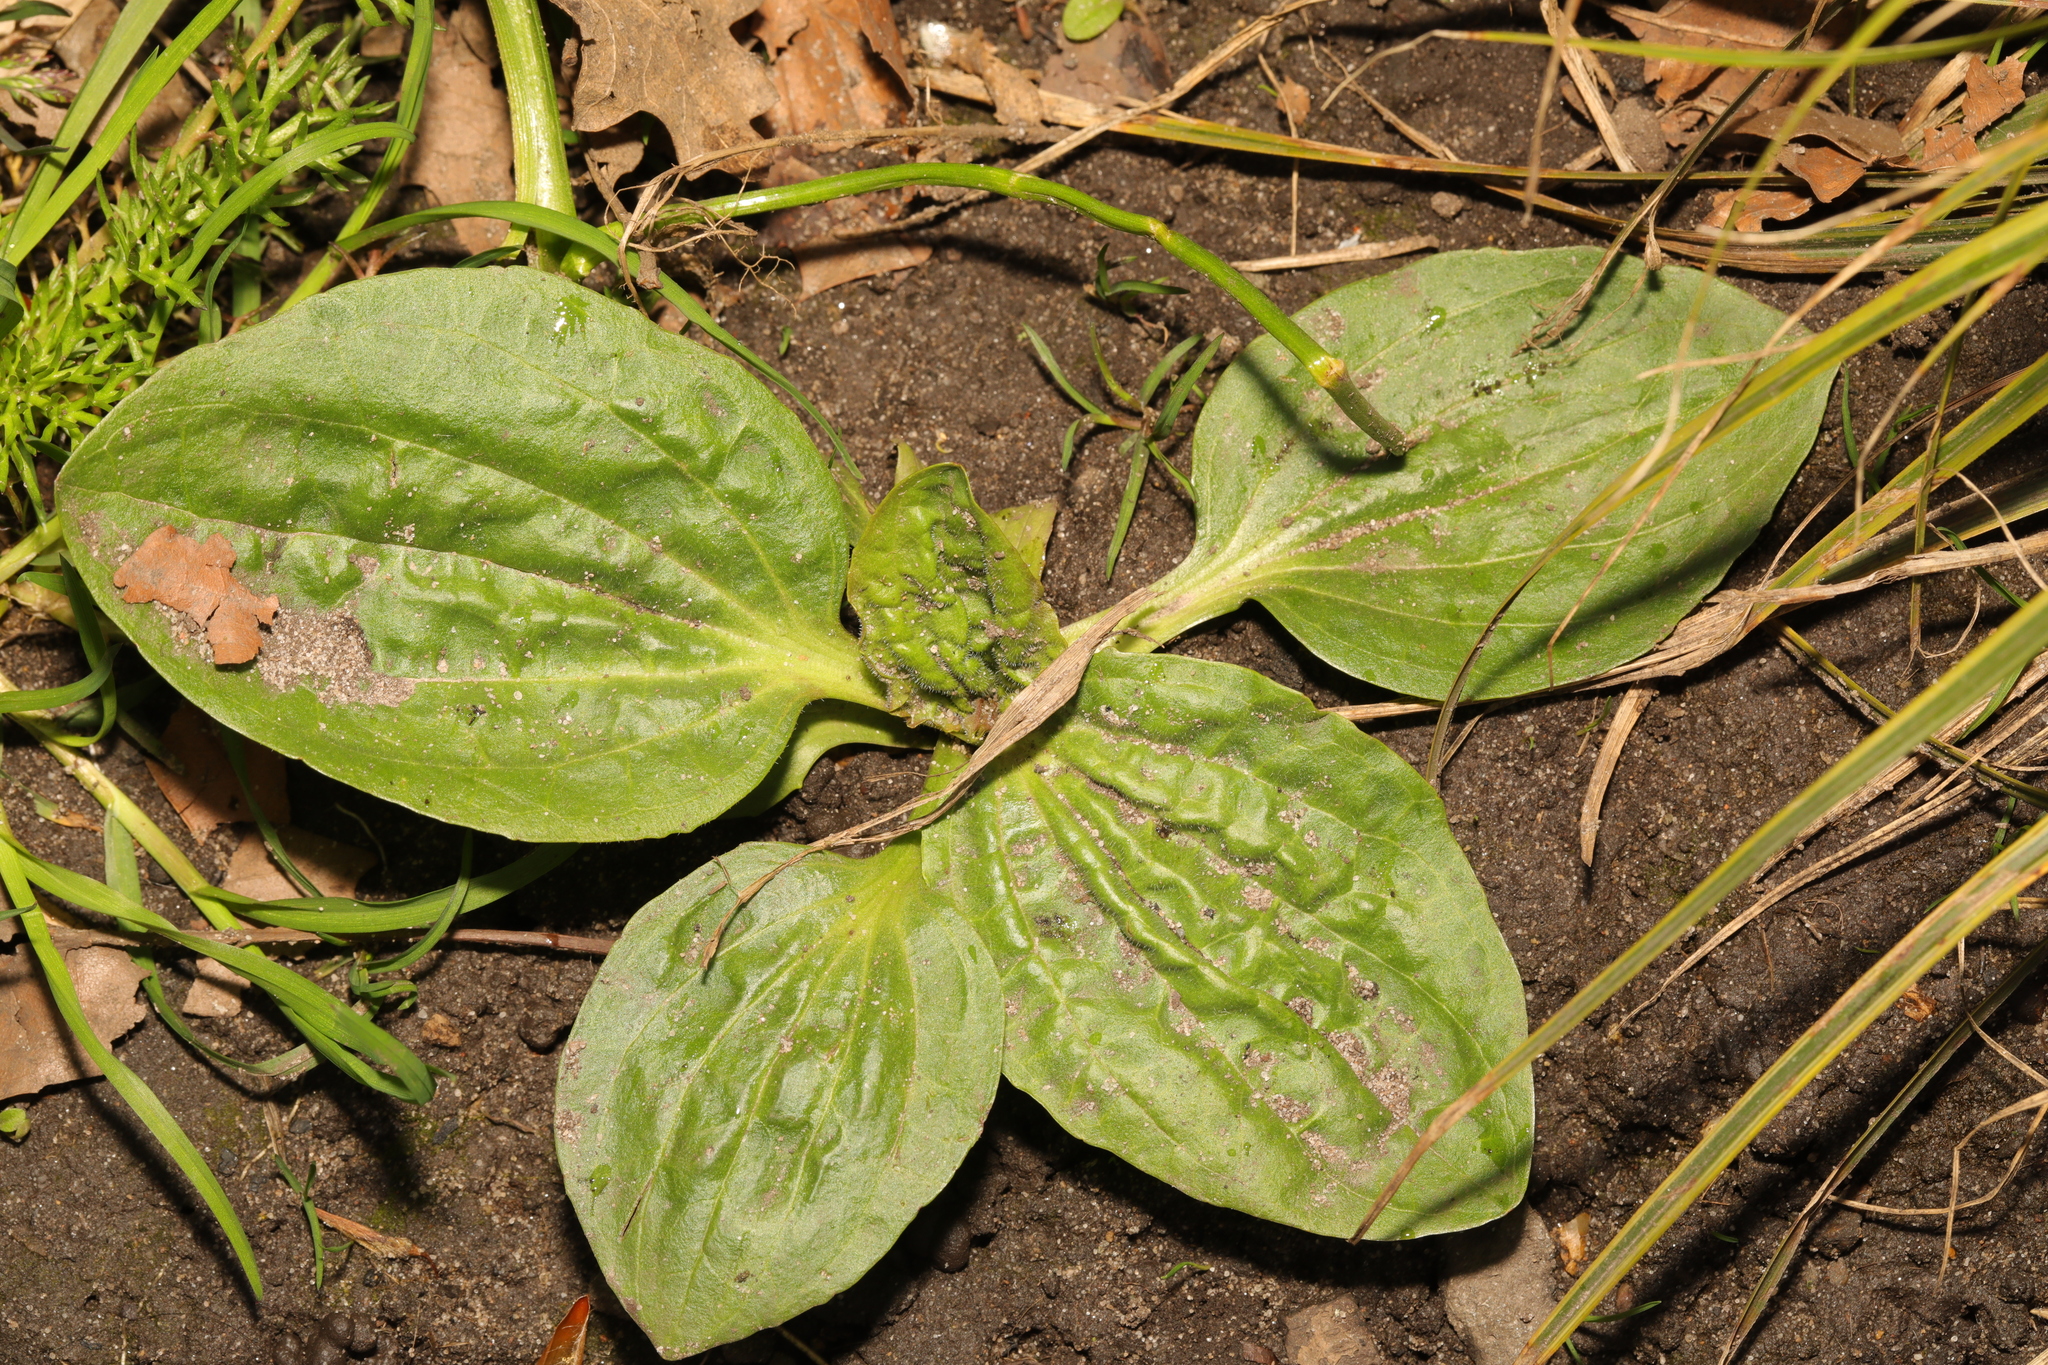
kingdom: Plantae
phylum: Tracheophyta
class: Magnoliopsida
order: Lamiales
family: Plantaginaceae
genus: Plantago
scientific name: Plantago major
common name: Common plantain
